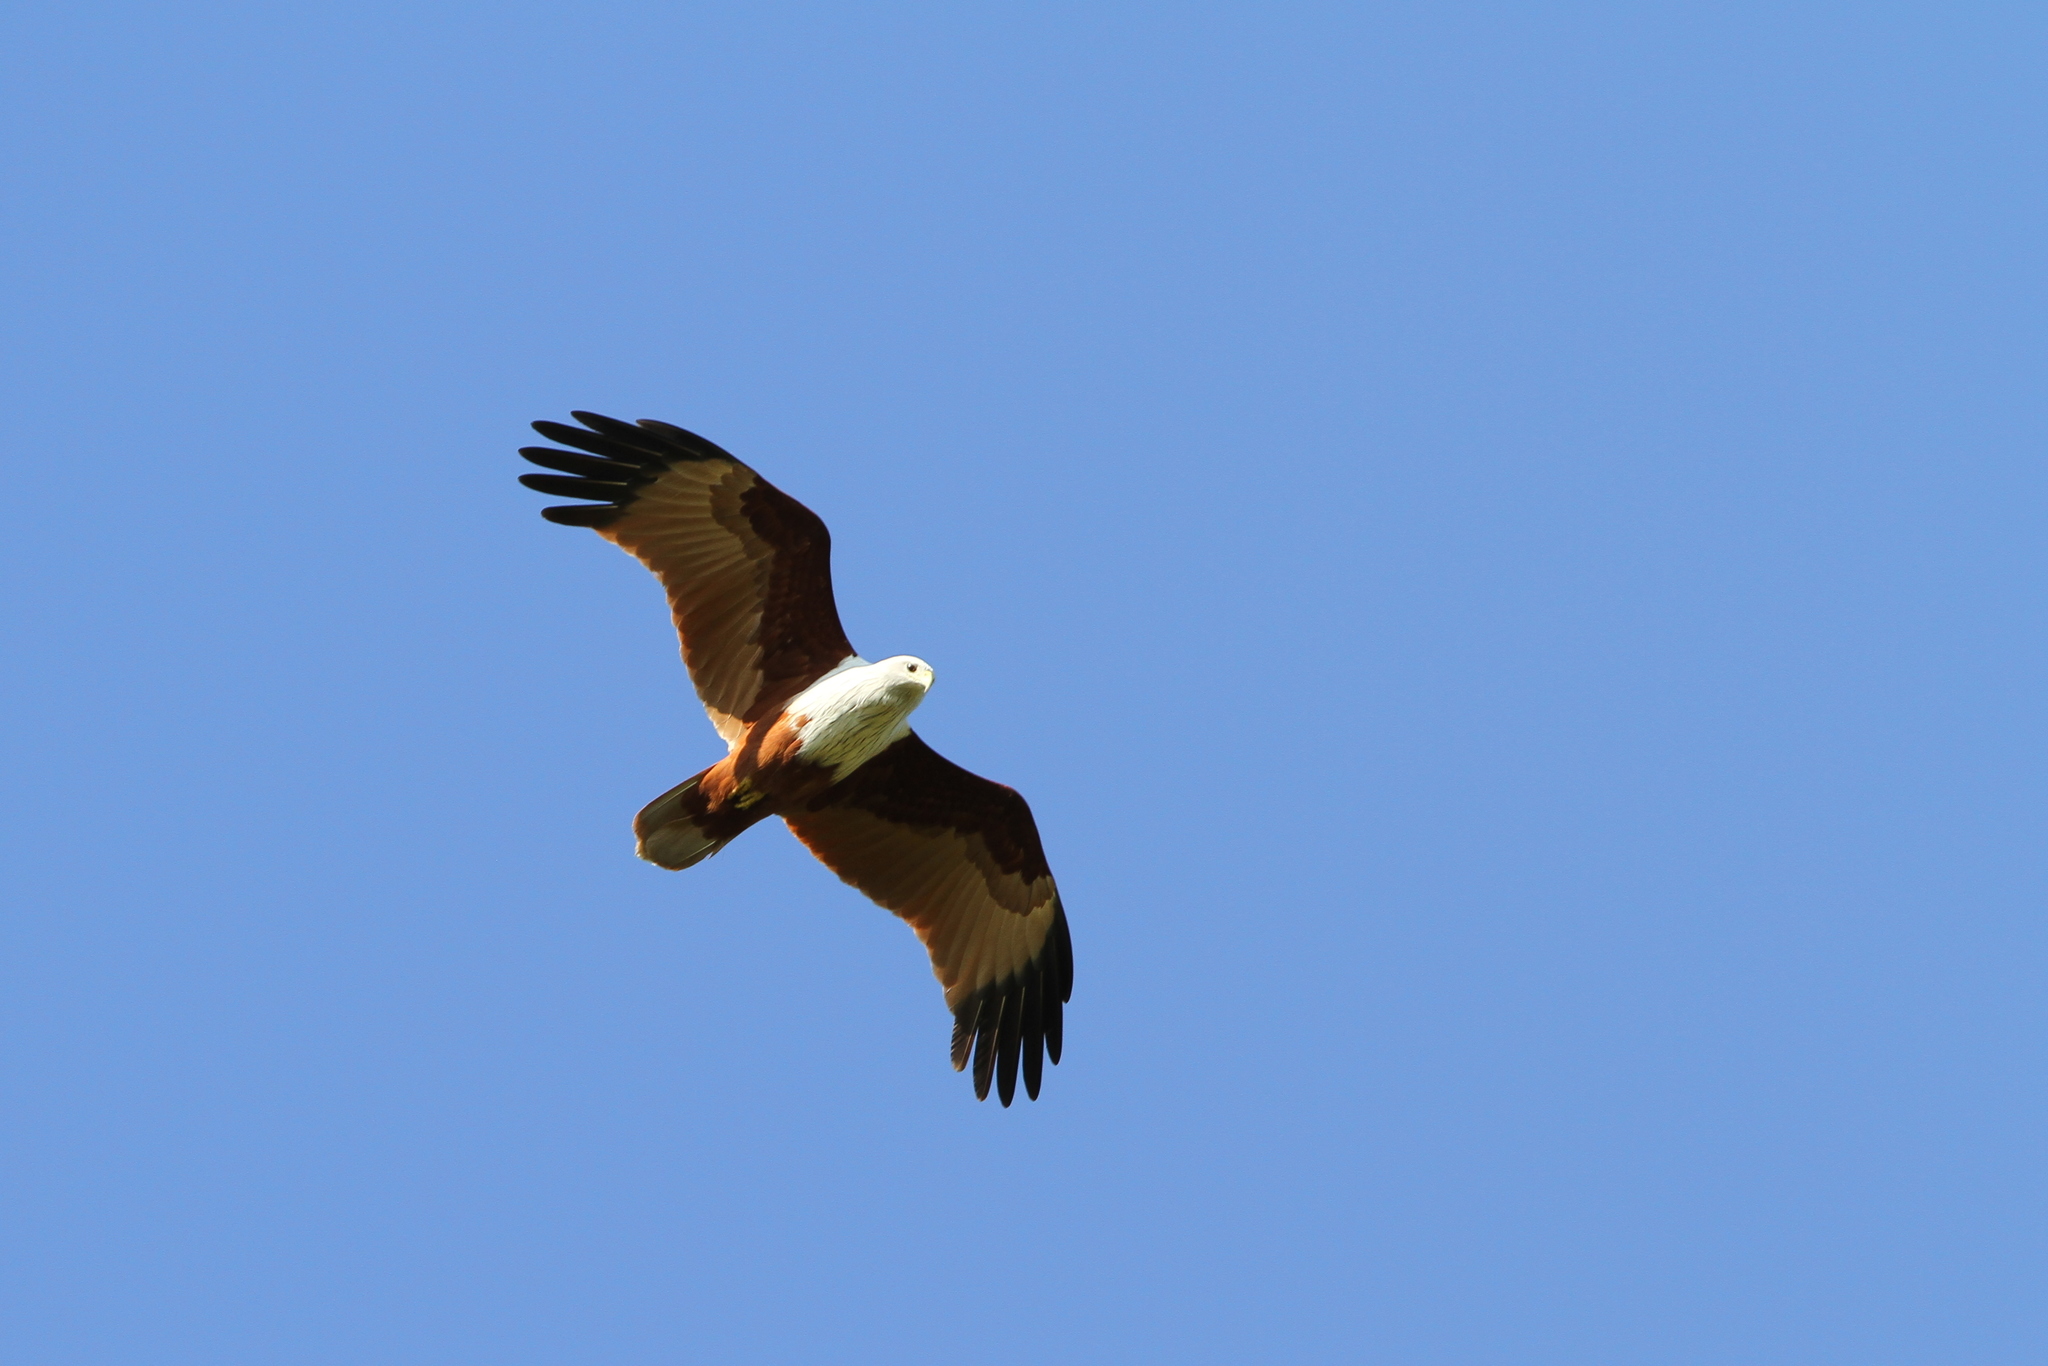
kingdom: Animalia
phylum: Chordata
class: Aves
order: Accipitriformes
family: Accipitridae
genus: Haliastur
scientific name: Haliastur indus
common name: Brahminy kite
